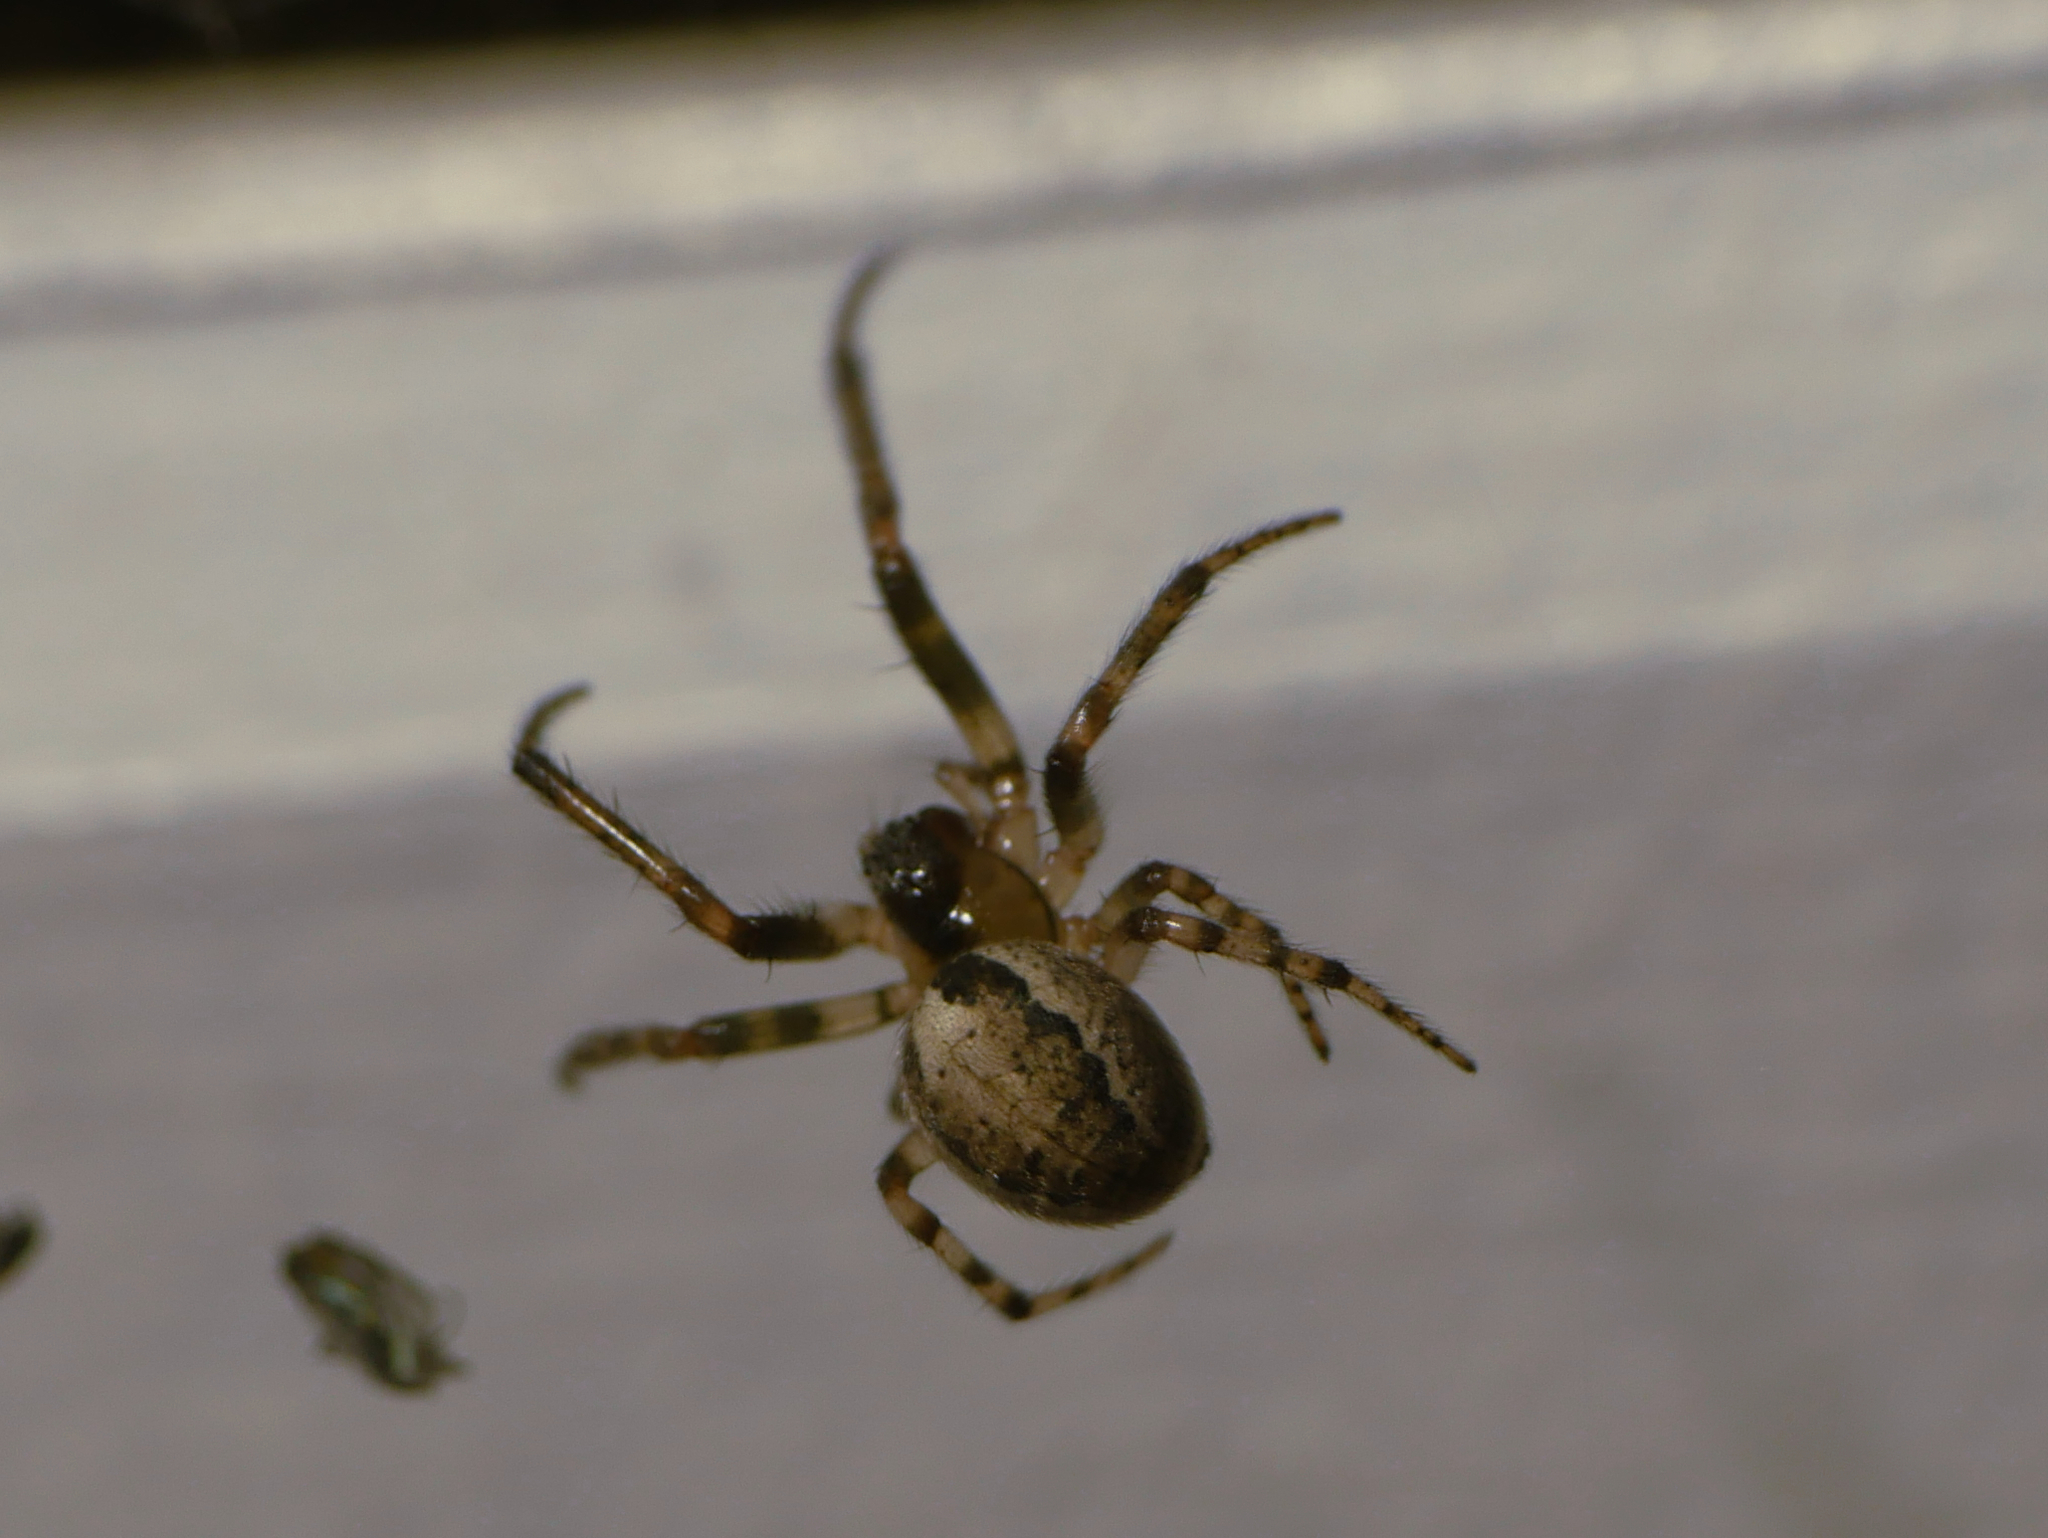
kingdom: Animalia
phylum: Arthropoda
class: Arachnida
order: Araneae
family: Araneidae
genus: Zygiella
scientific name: Zygiella x-notata
